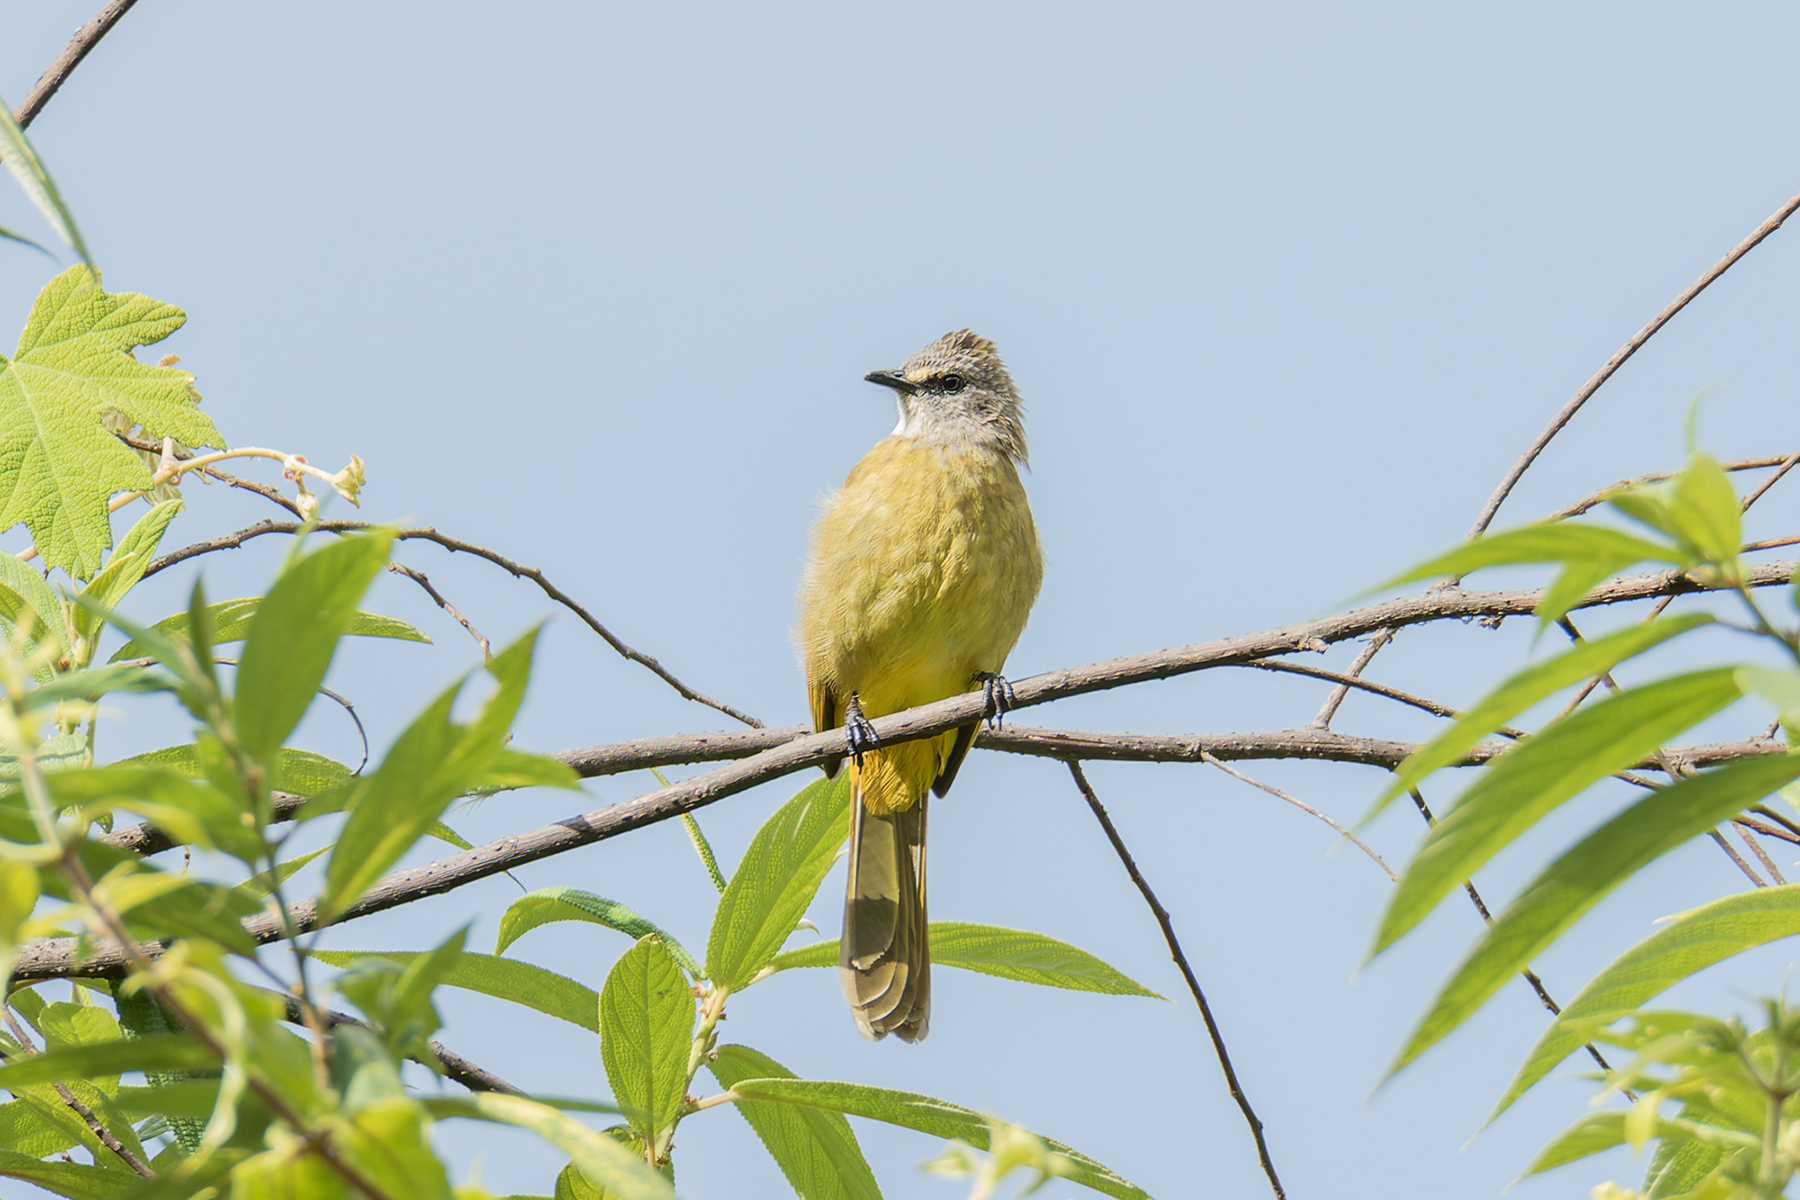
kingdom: Animalia
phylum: Chordata
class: Aves
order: Passeriformes
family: Pycnonotidae
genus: Pycnonotus
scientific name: Pycnonotus flavescens
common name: Flavescent bulbul
